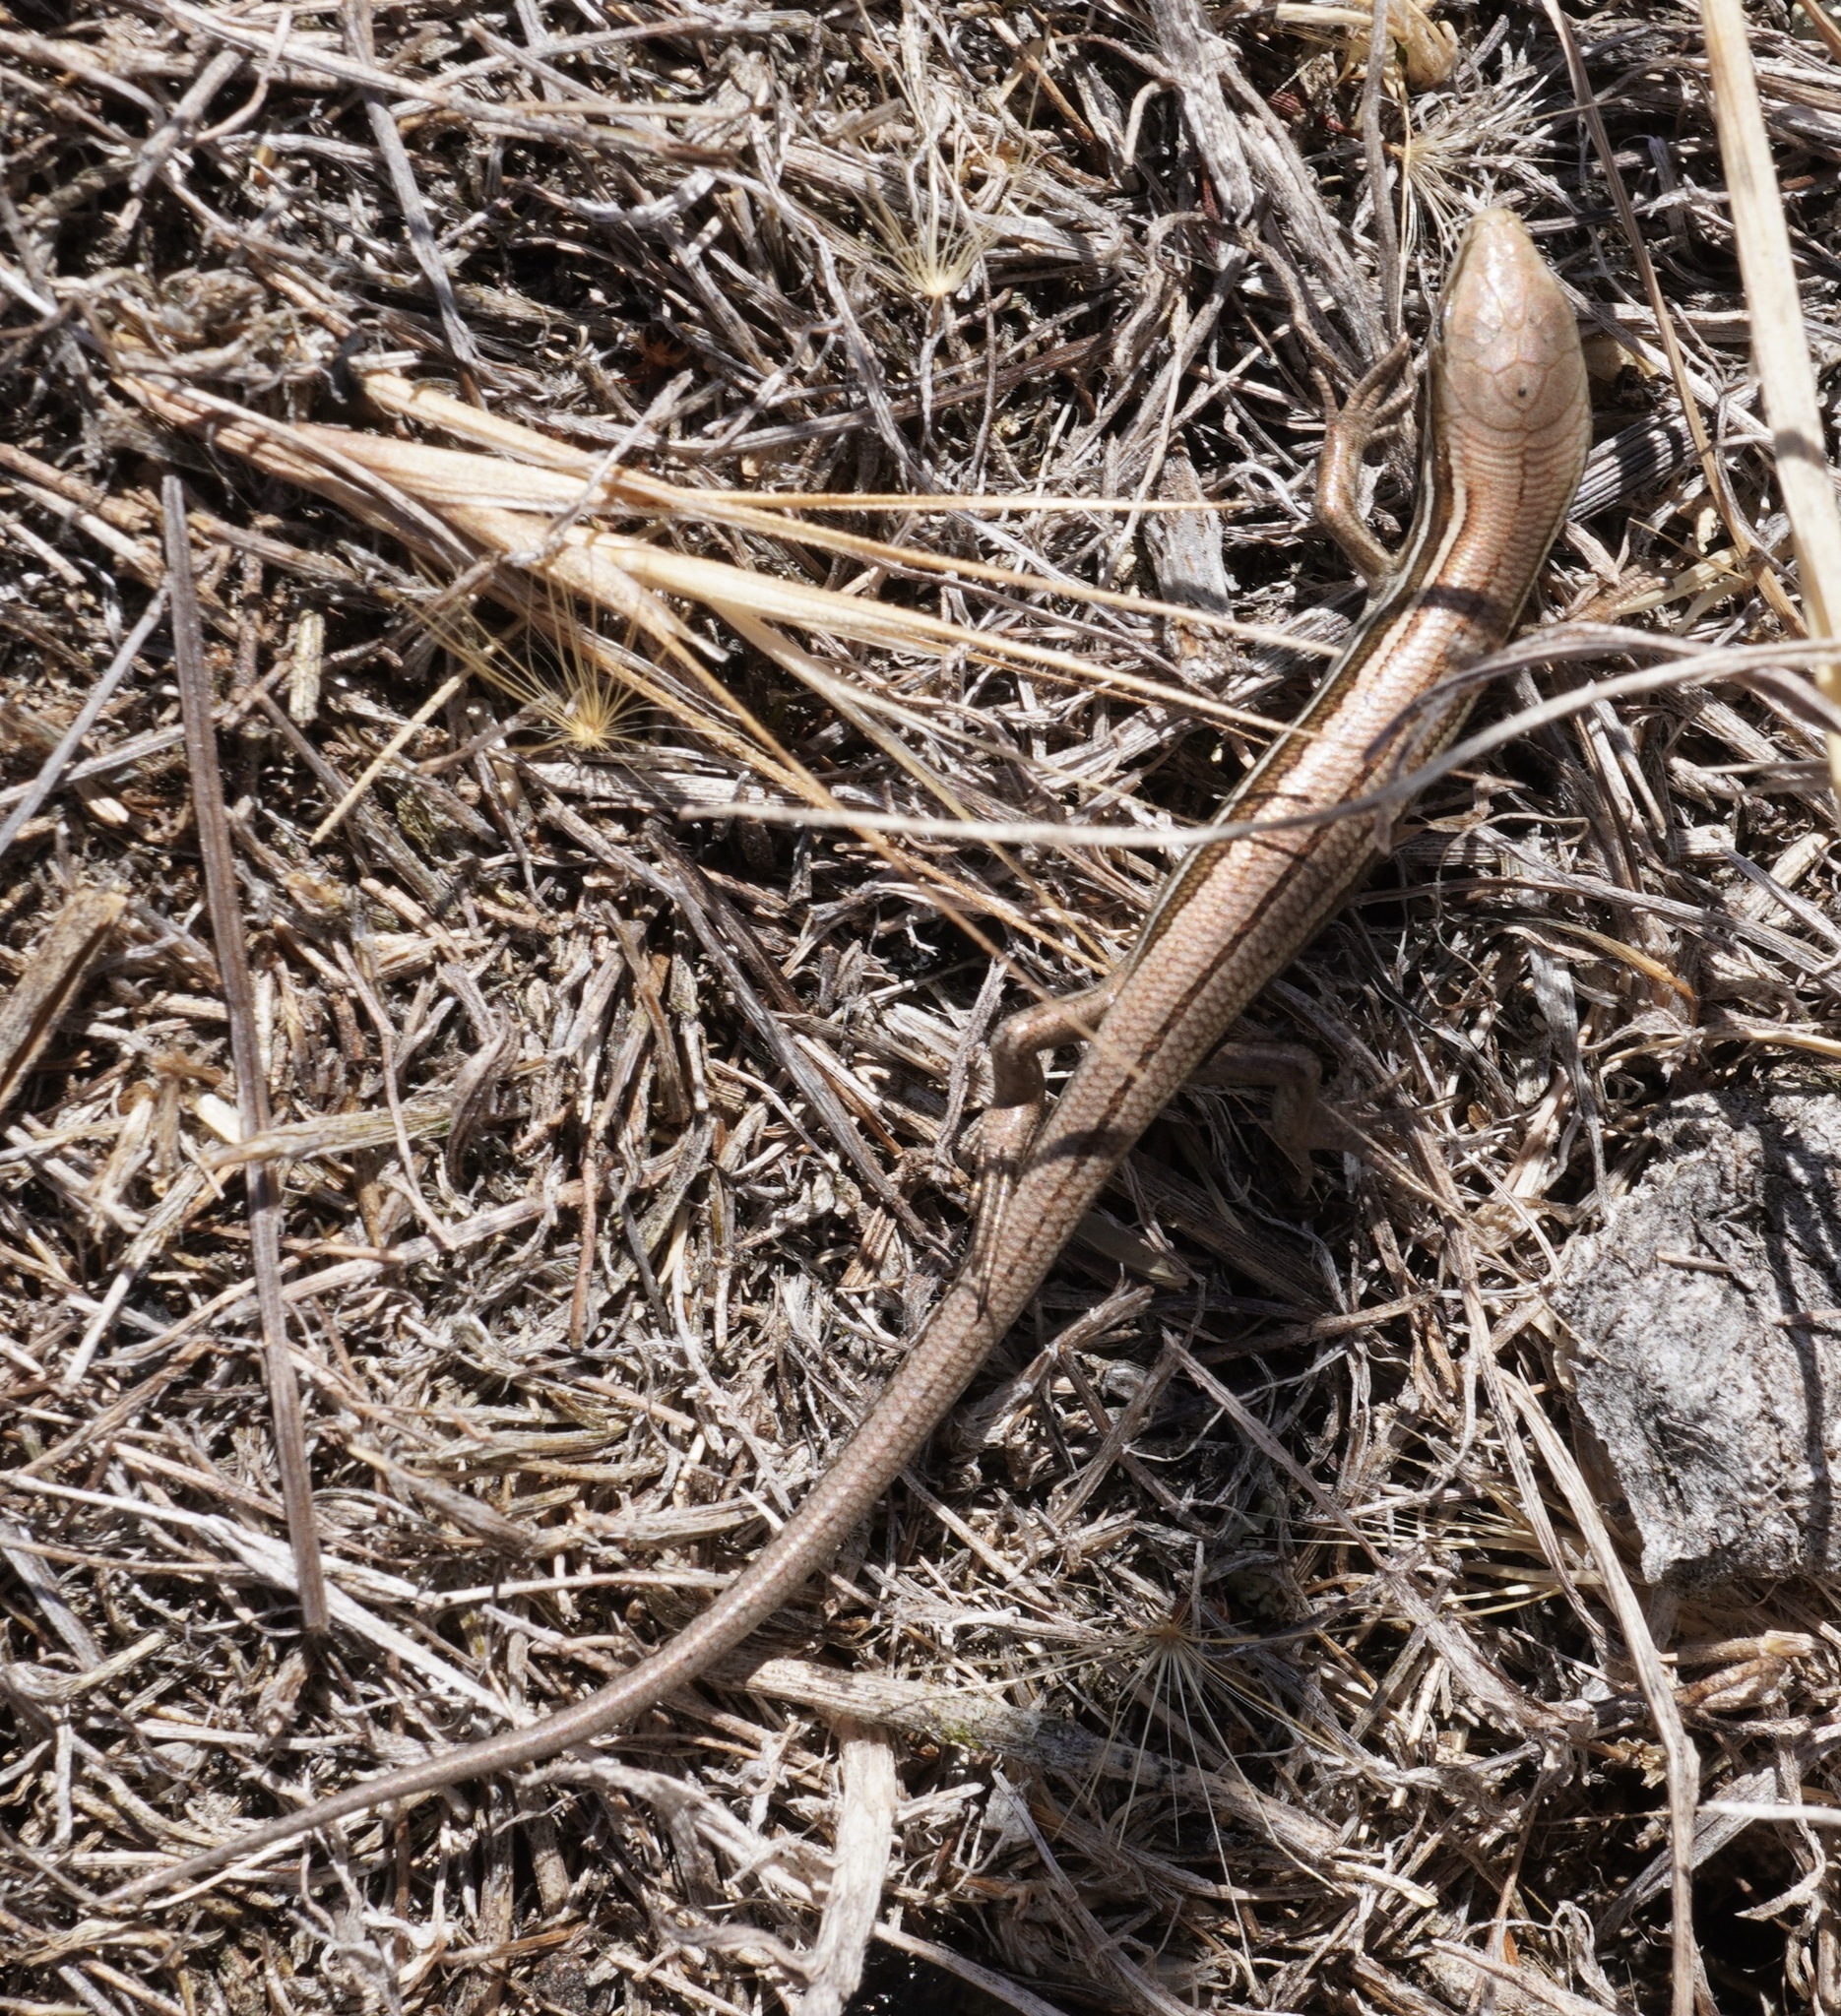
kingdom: Animalia
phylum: Chordata
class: Squamata
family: Scincidae
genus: Oligosoma
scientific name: Oligosoma polychroma
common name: Common new zealand skink
